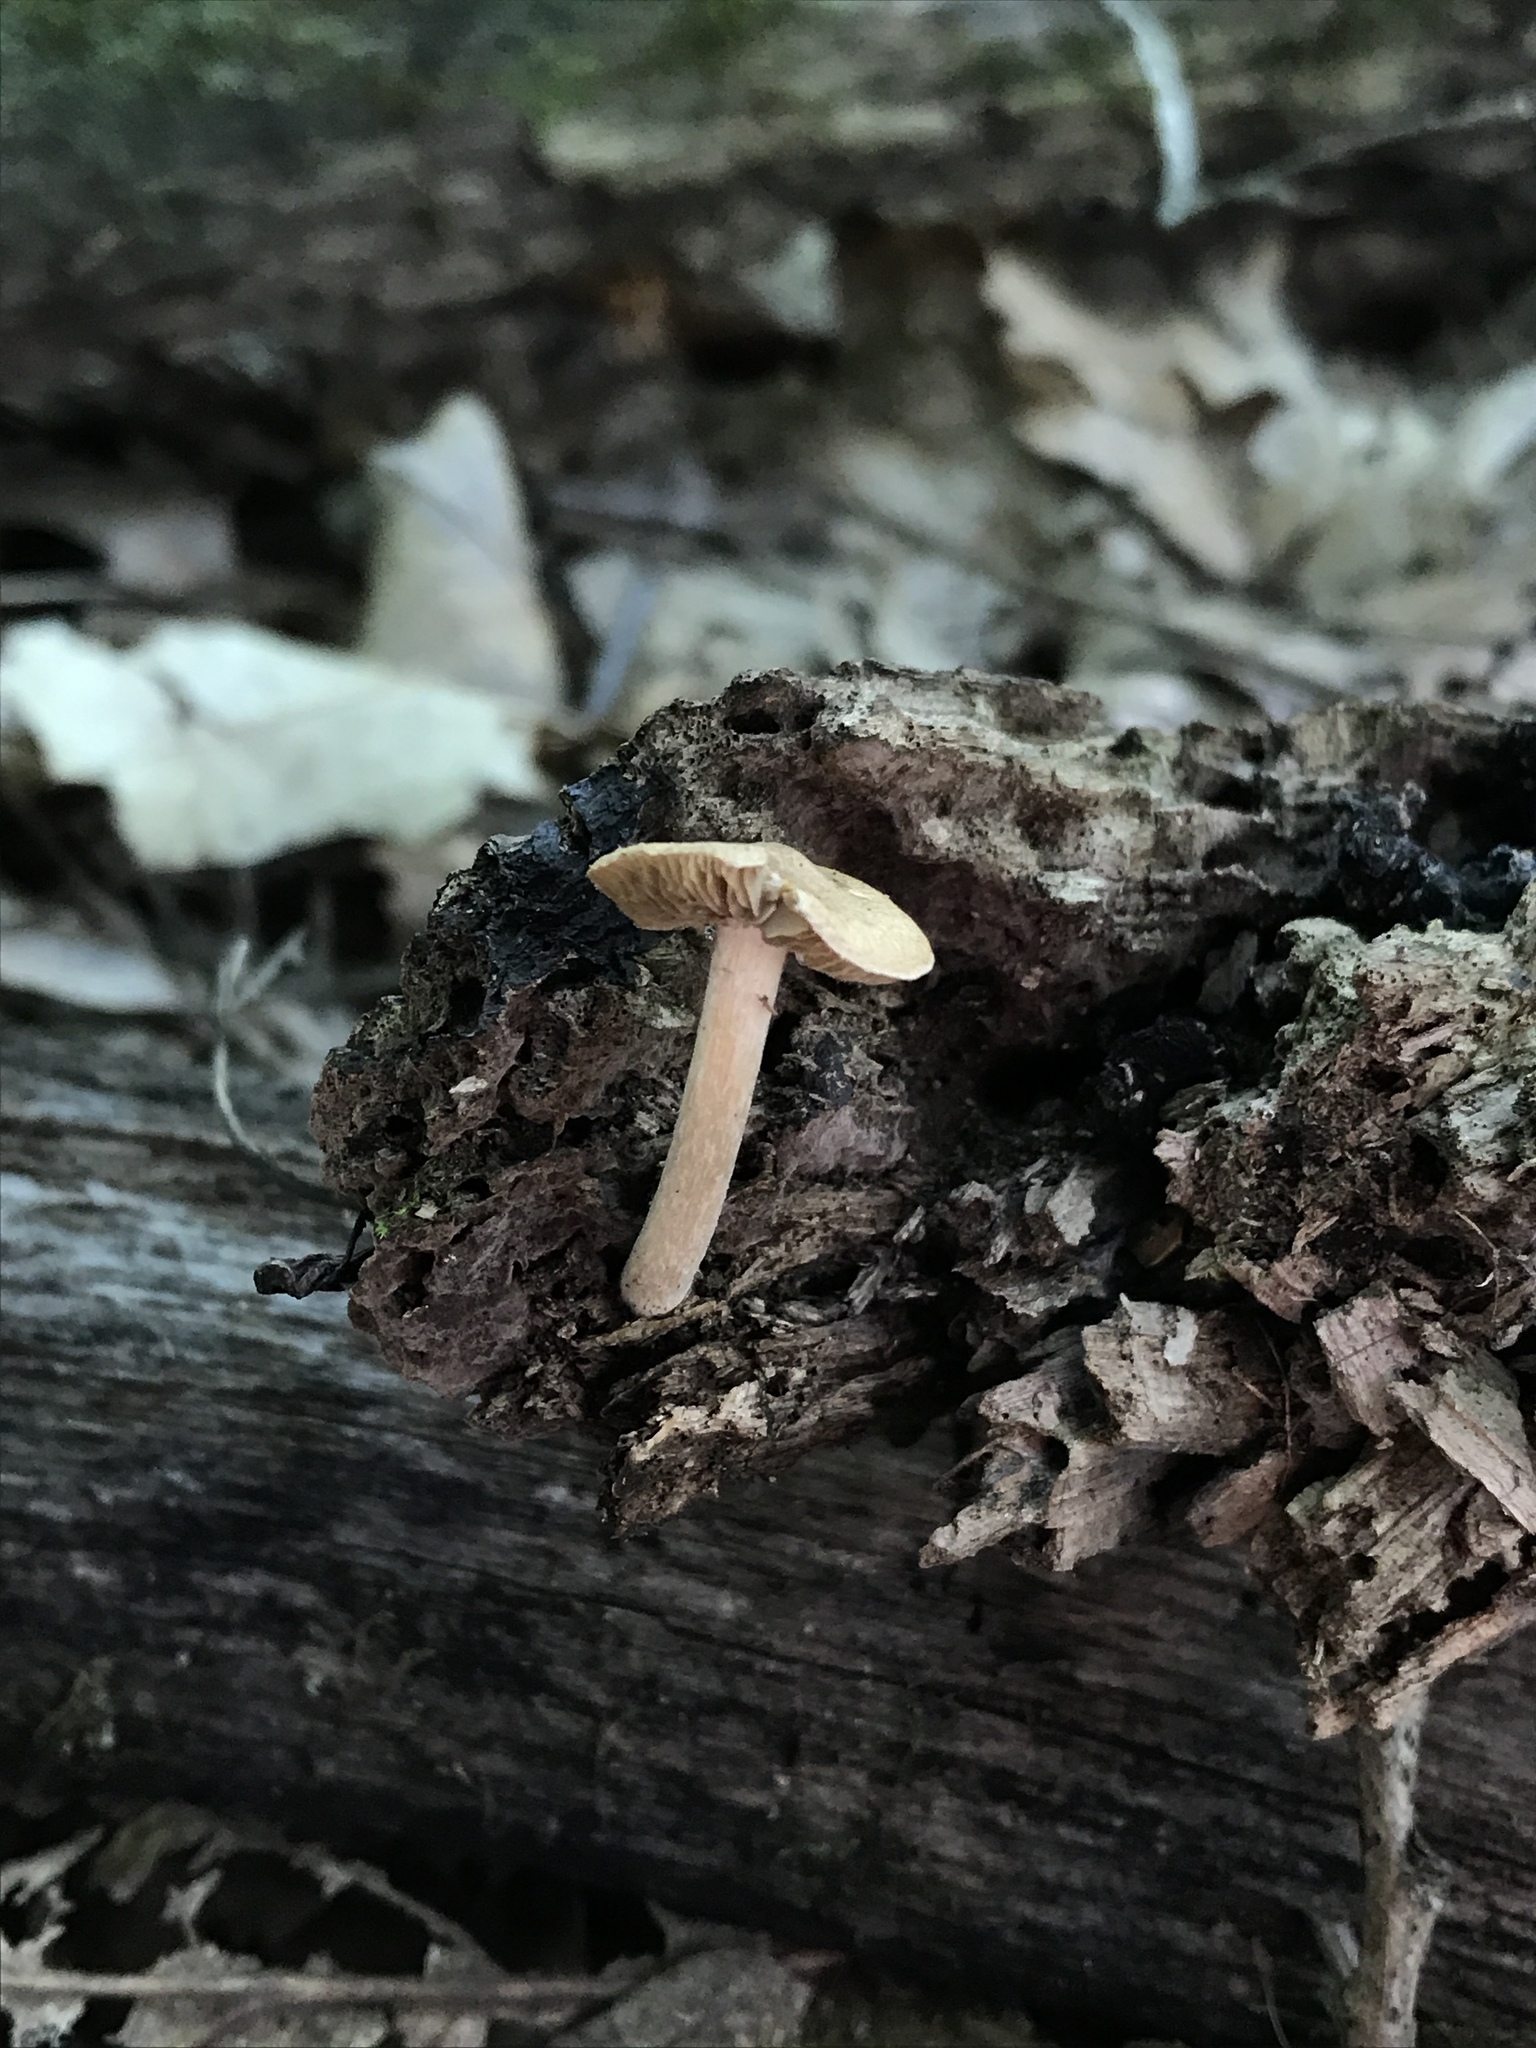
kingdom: Fungi
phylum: Basidiomycota
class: Agaricomycetes
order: Agaricales
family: Inocybaceae
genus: Inocybe
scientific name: Inocybe flocculosa
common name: Fleecy fibrecap
